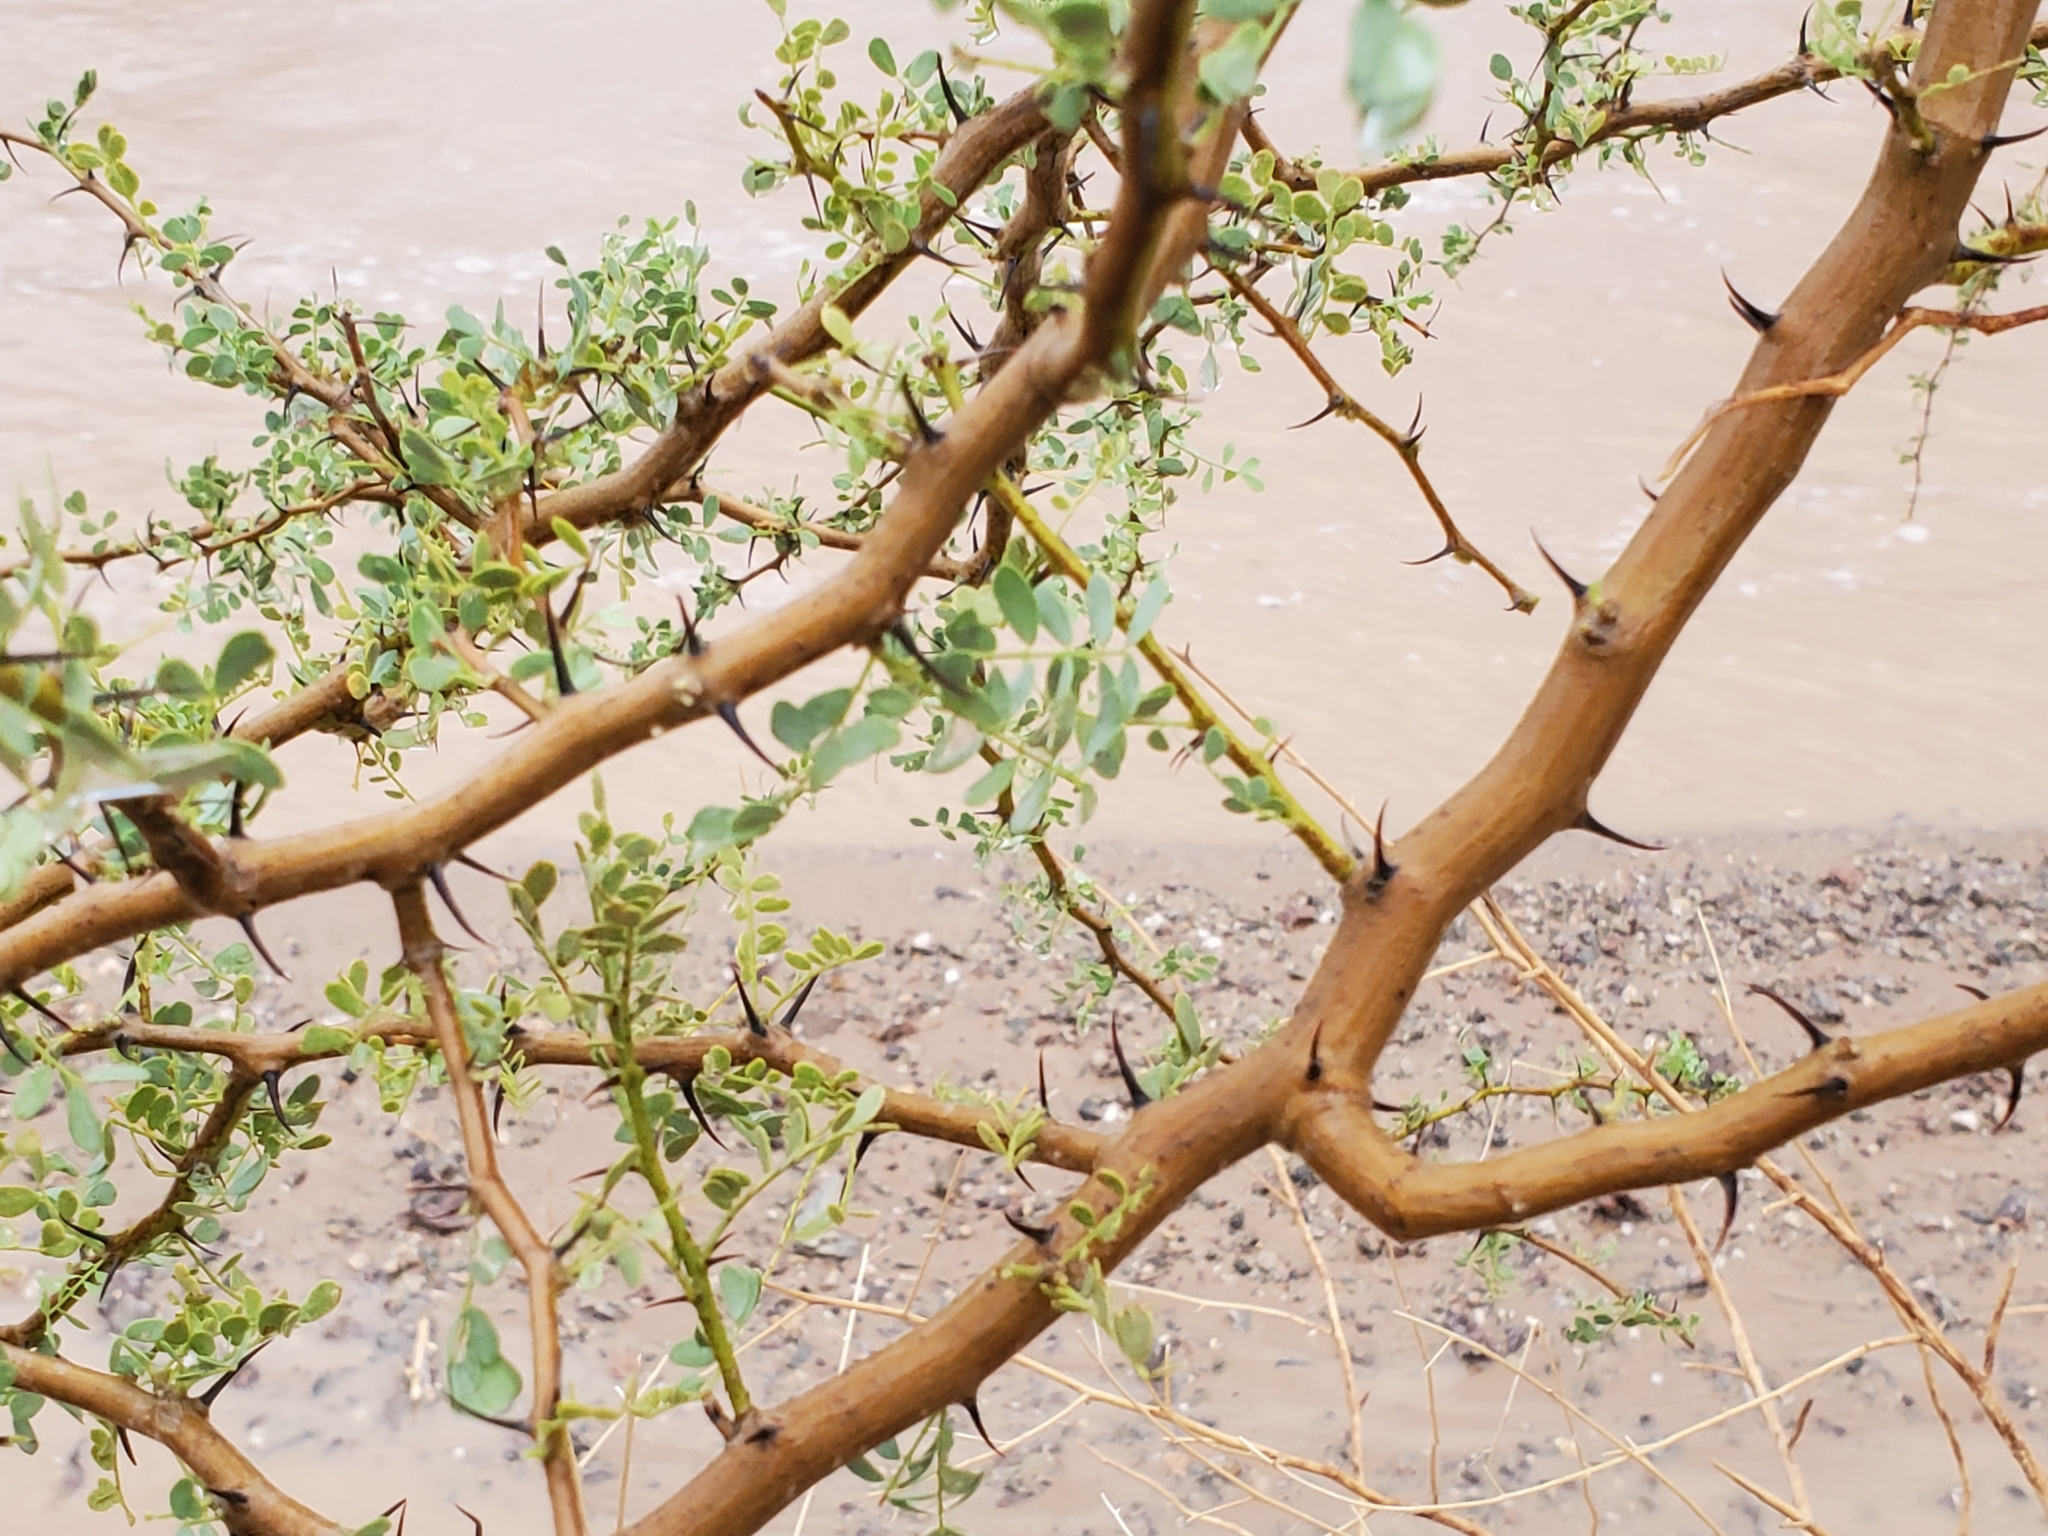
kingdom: Plantae
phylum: Tracheophyta
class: Magnoliopsida
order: Fabales
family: Fabaceae
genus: Olneya
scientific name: Olneya tesota
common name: Desert ironwood
